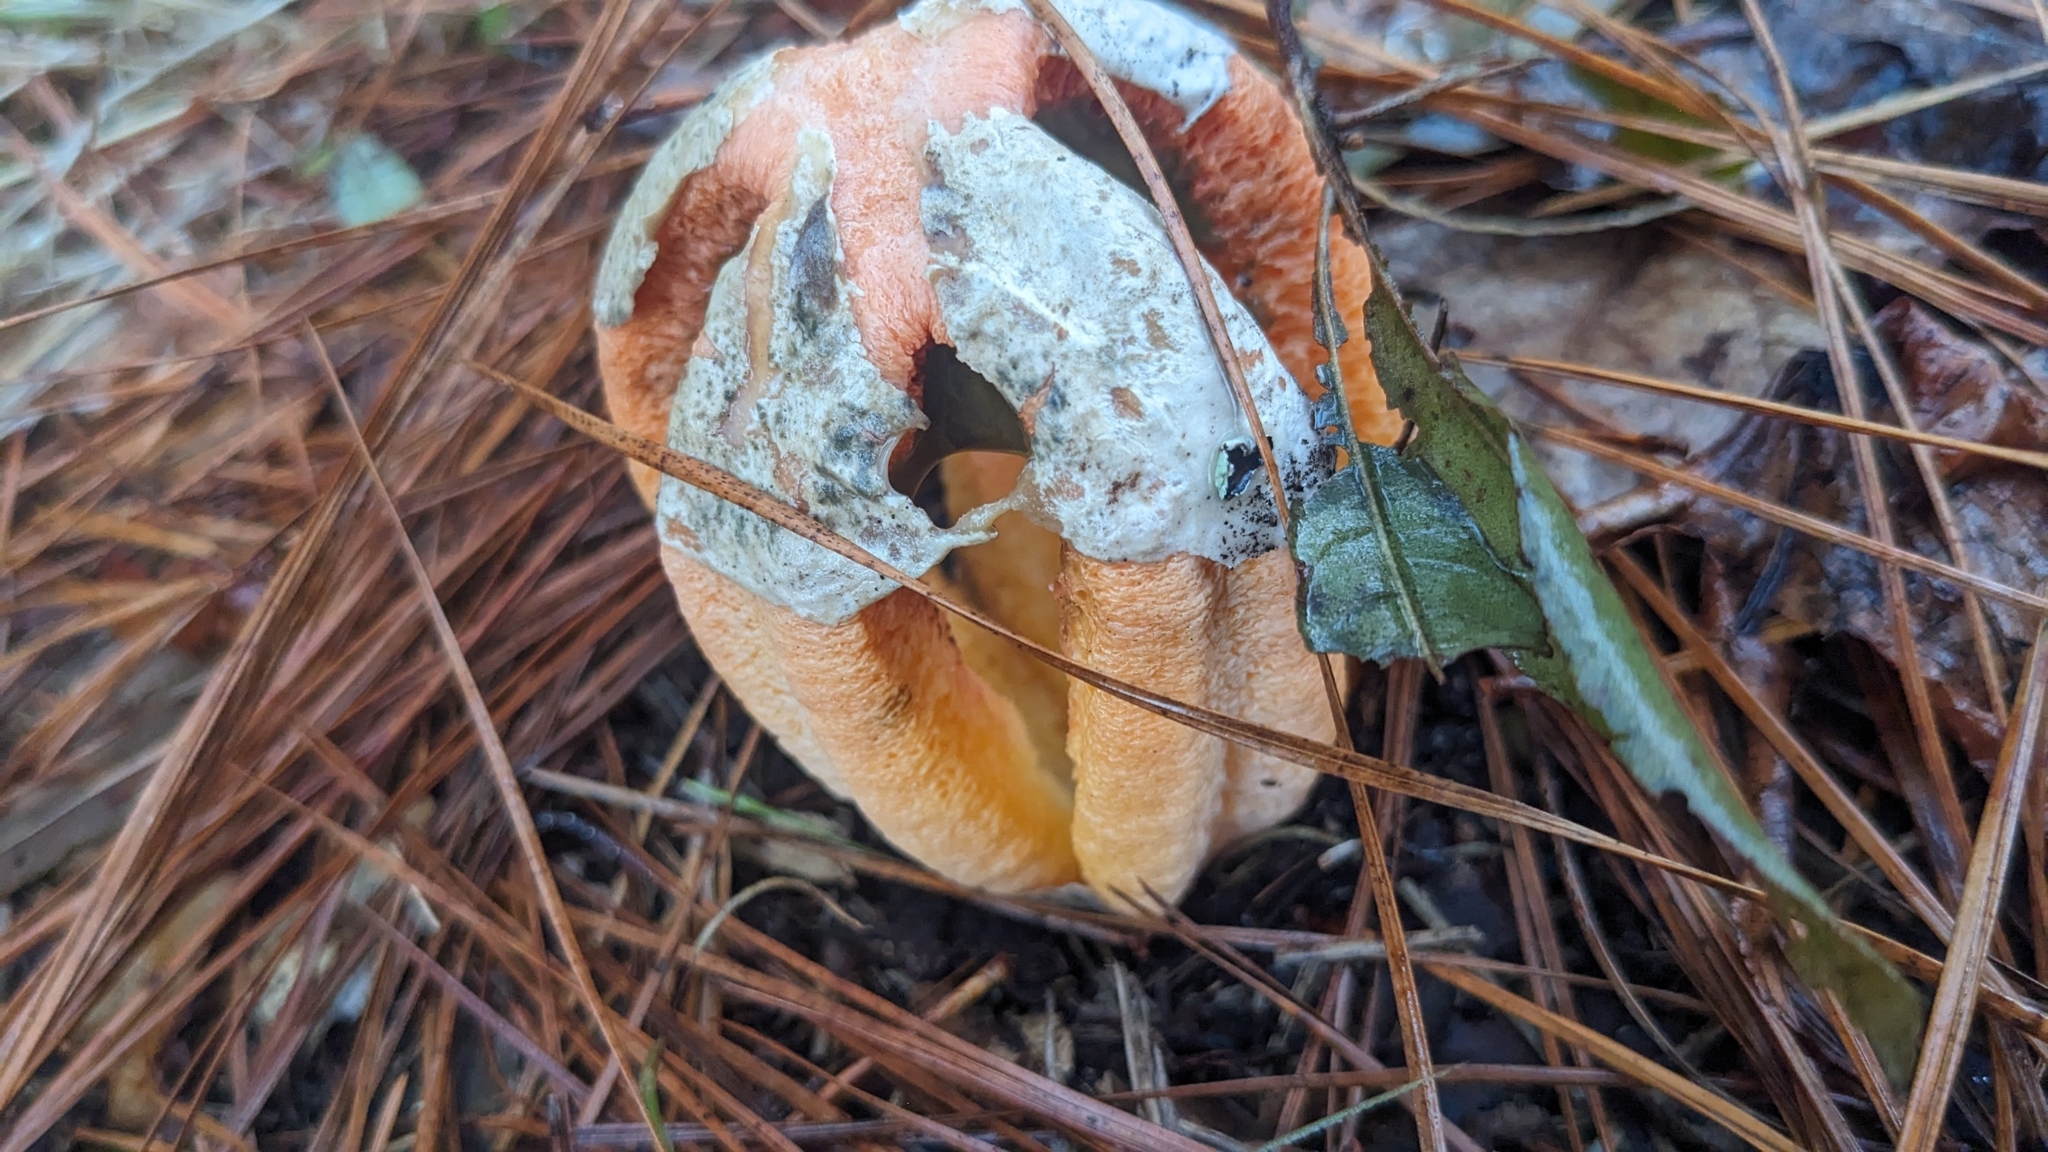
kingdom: Fungi
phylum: Basidiomycota
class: Agaricomycetes
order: Phallales
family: Phallaceae
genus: Clathrus
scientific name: Clathrus columnatus
